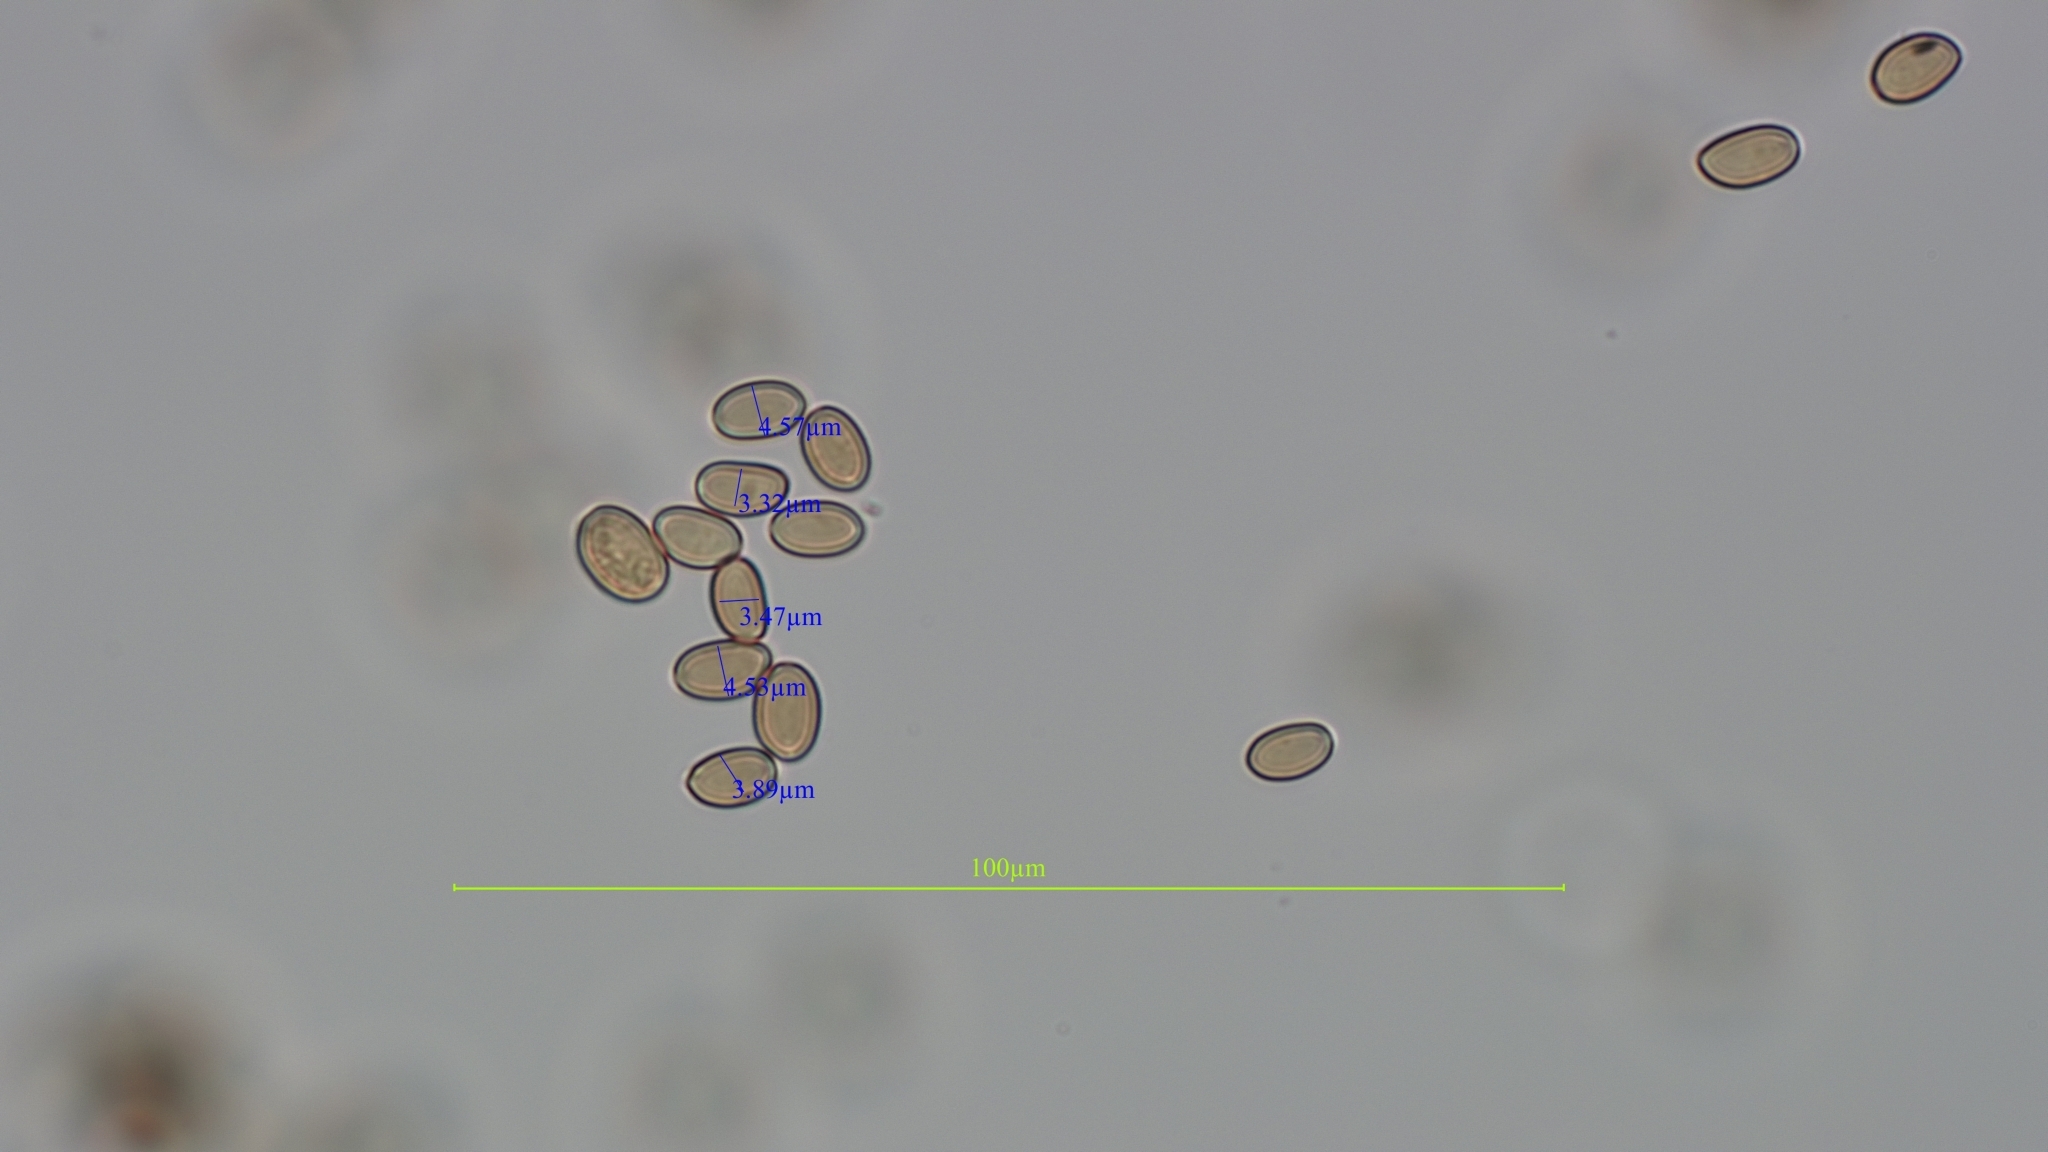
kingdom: Fungi
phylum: Basidiomycota
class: Agaricomycetes
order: Agaricales
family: Tubariaceae
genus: Cyclocybe
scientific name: Cyclocybe parasitica
